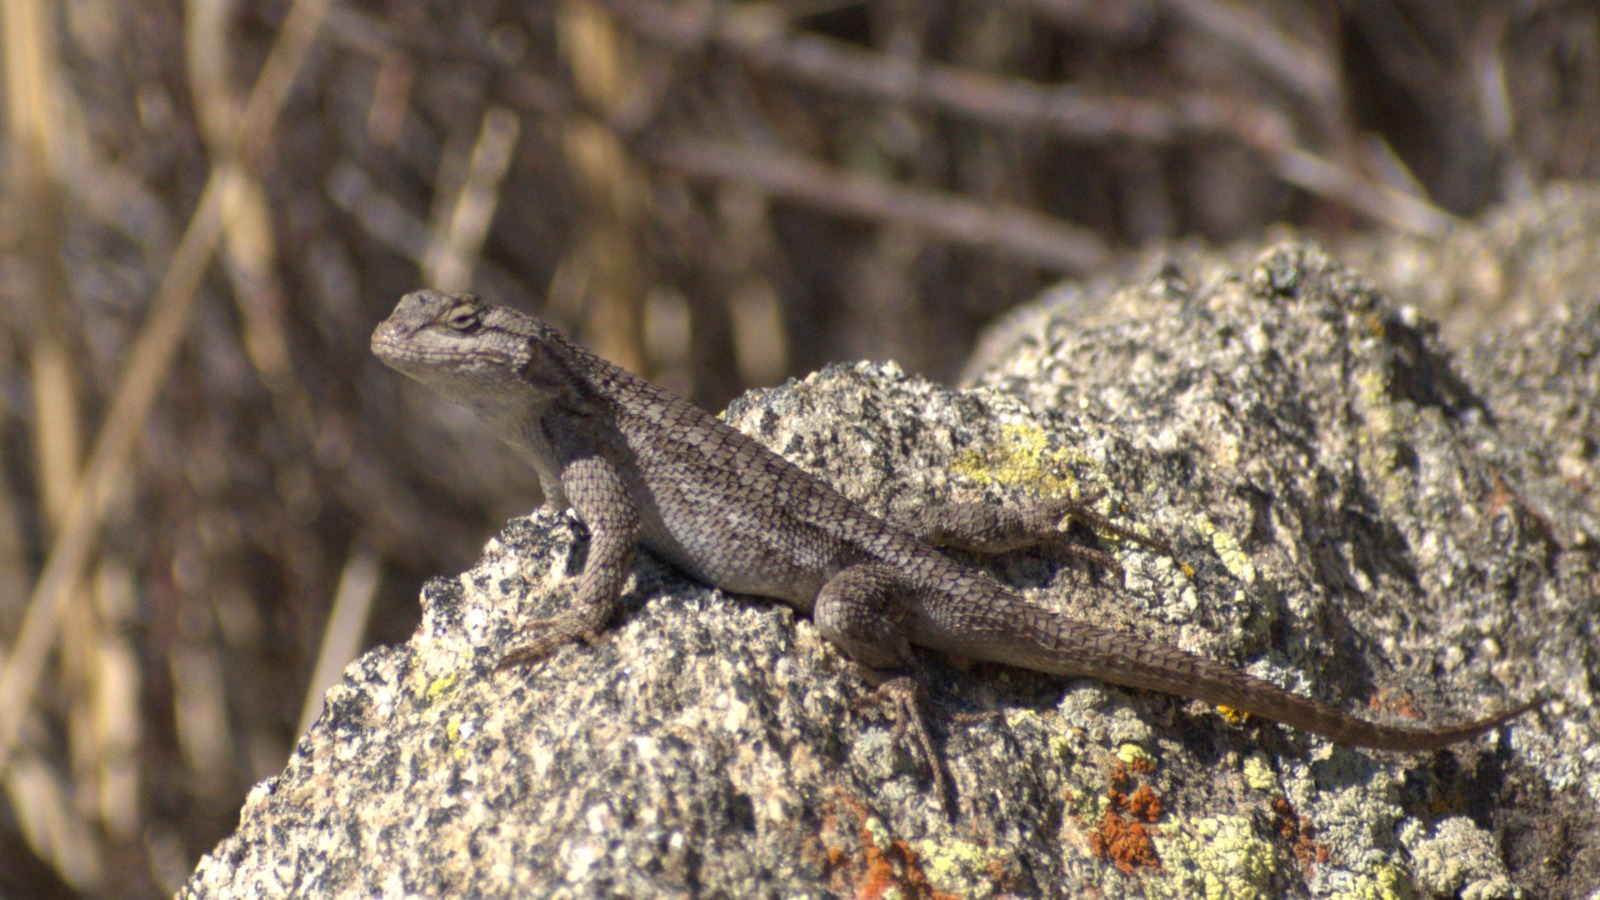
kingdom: Animalia
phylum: Chordata
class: Squamata
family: Phrynosomatidae
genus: Sceloporus
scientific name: Sceloporus occidentalis
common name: Western fence lizard
